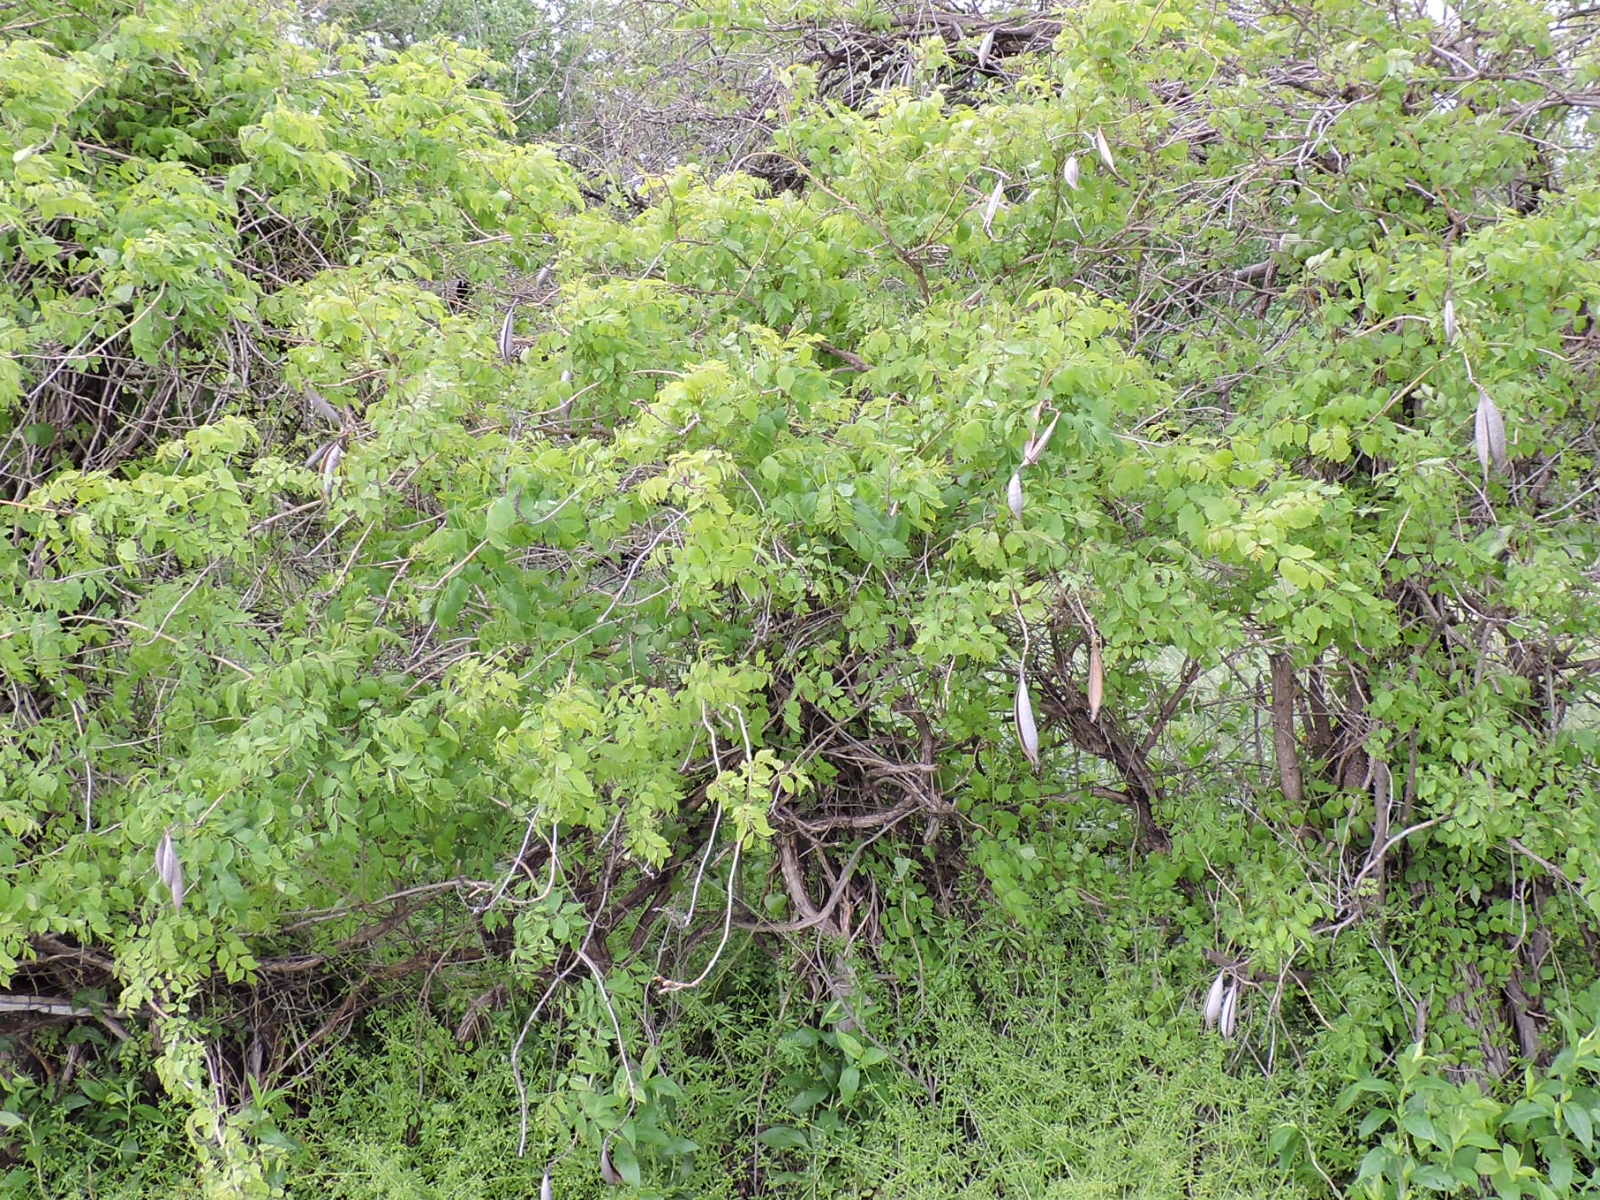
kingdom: Plantae
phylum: Tracheophyta
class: Magnoliopsida
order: Lamiales
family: Bignoniaceae
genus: Campsis
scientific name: Campsis radicans
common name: Trumpet-creeper
